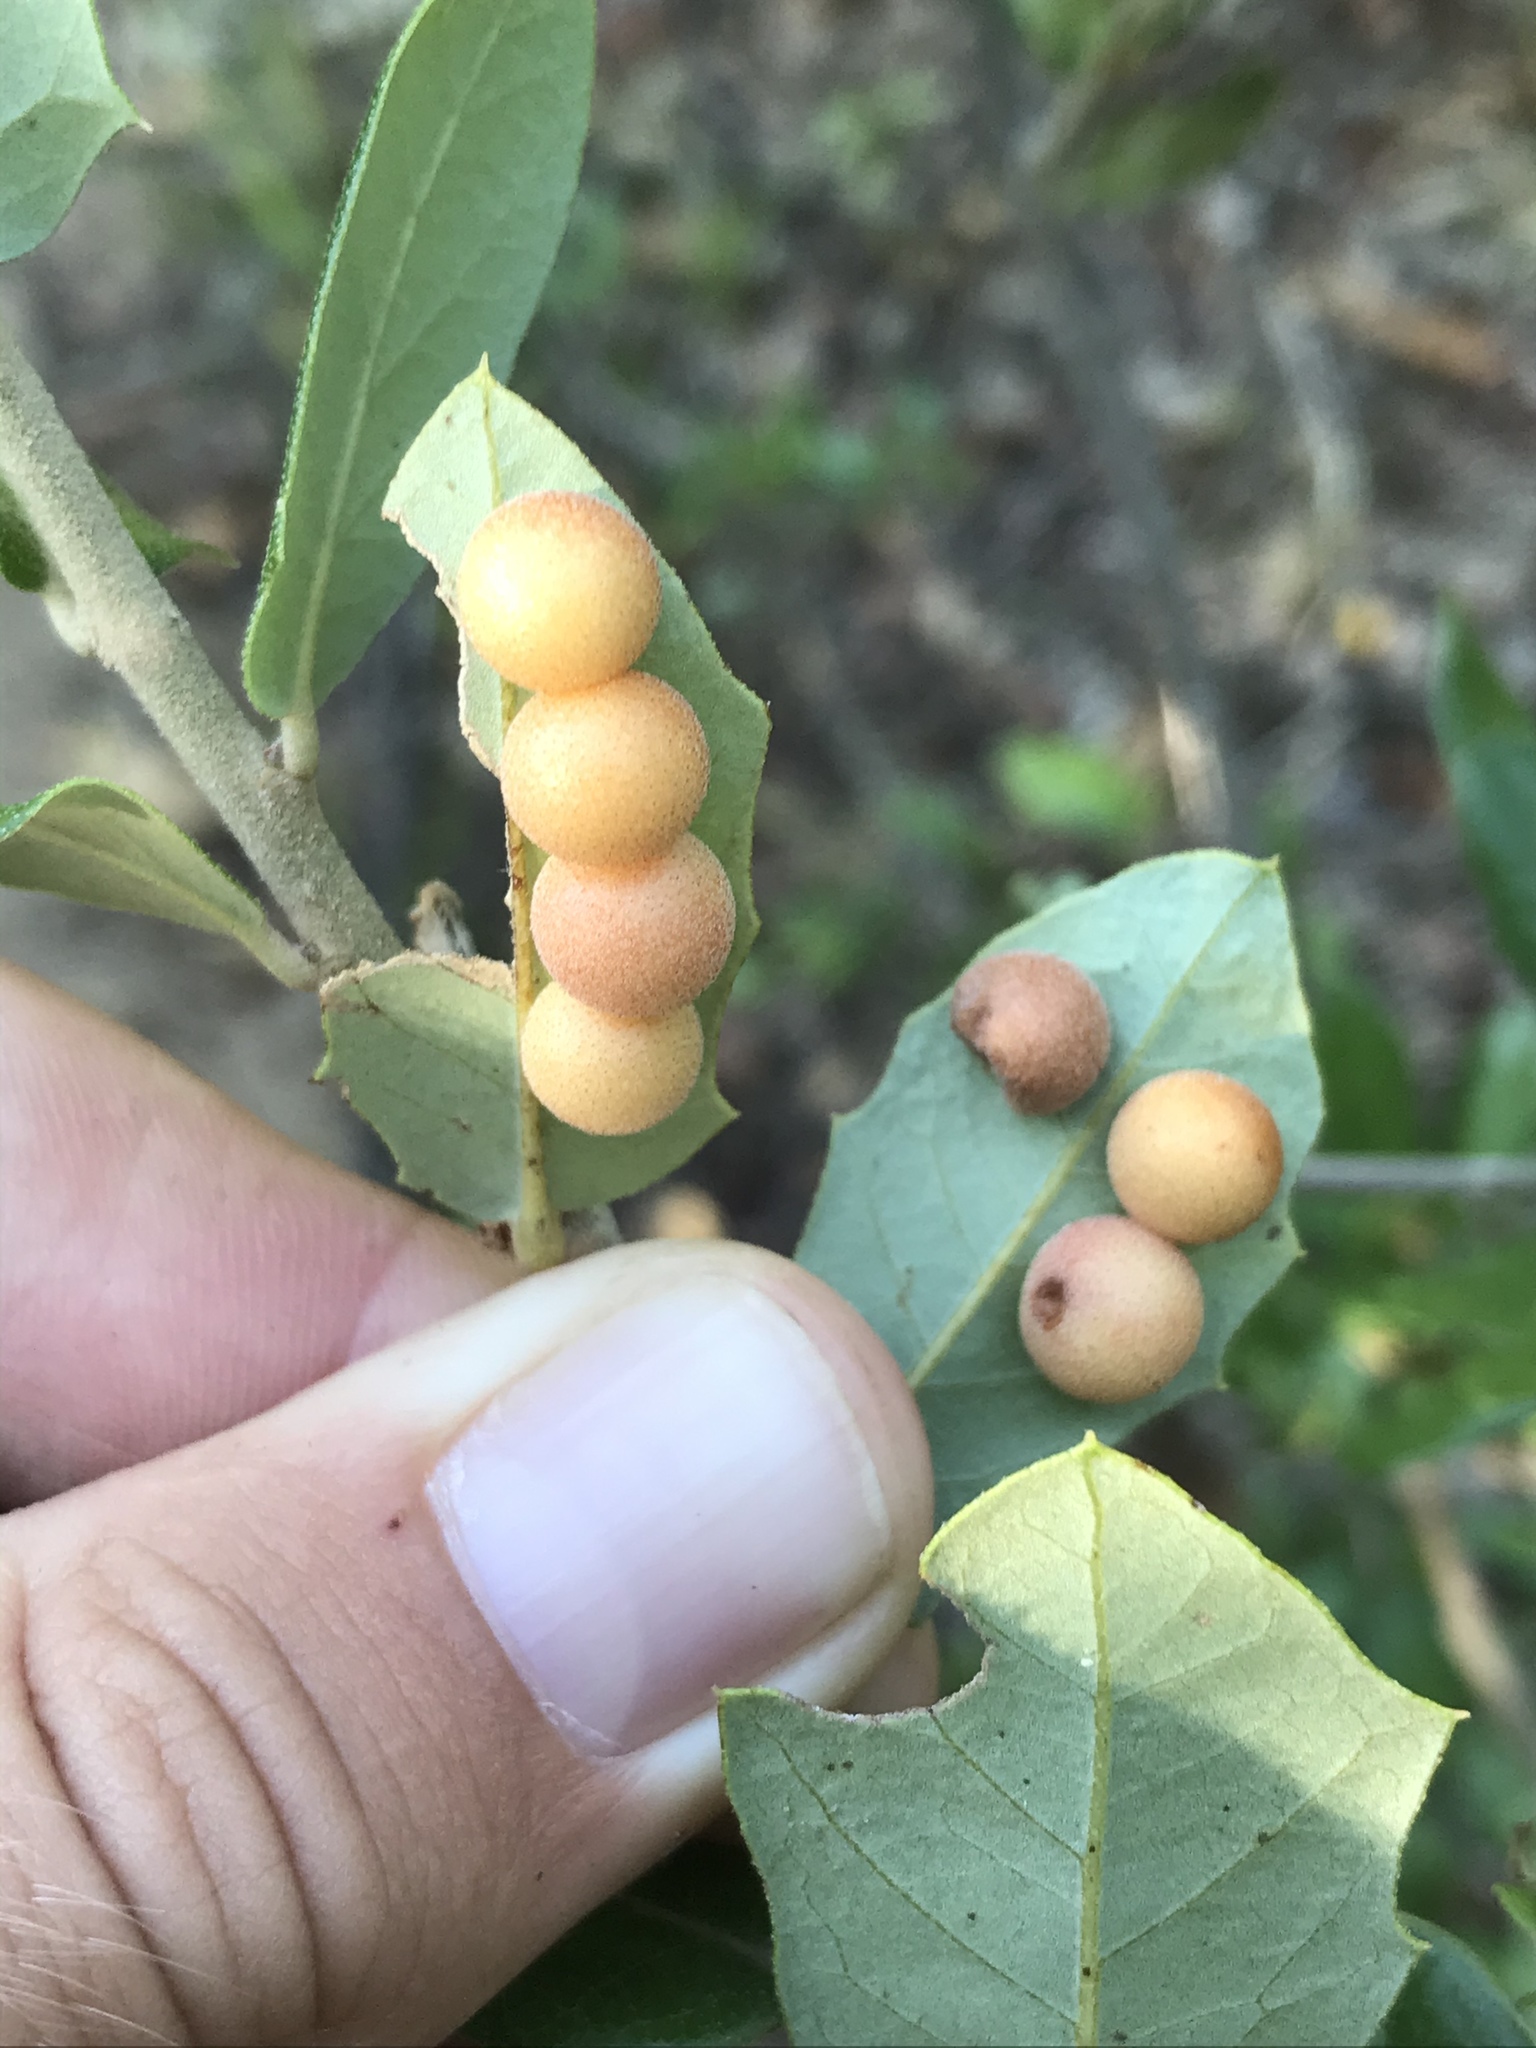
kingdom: Animalia
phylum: Arthropoda
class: Insecta
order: Hymenoptera
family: Cynipidae
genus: Belonocnema
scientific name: Belonocnema kinseyi
